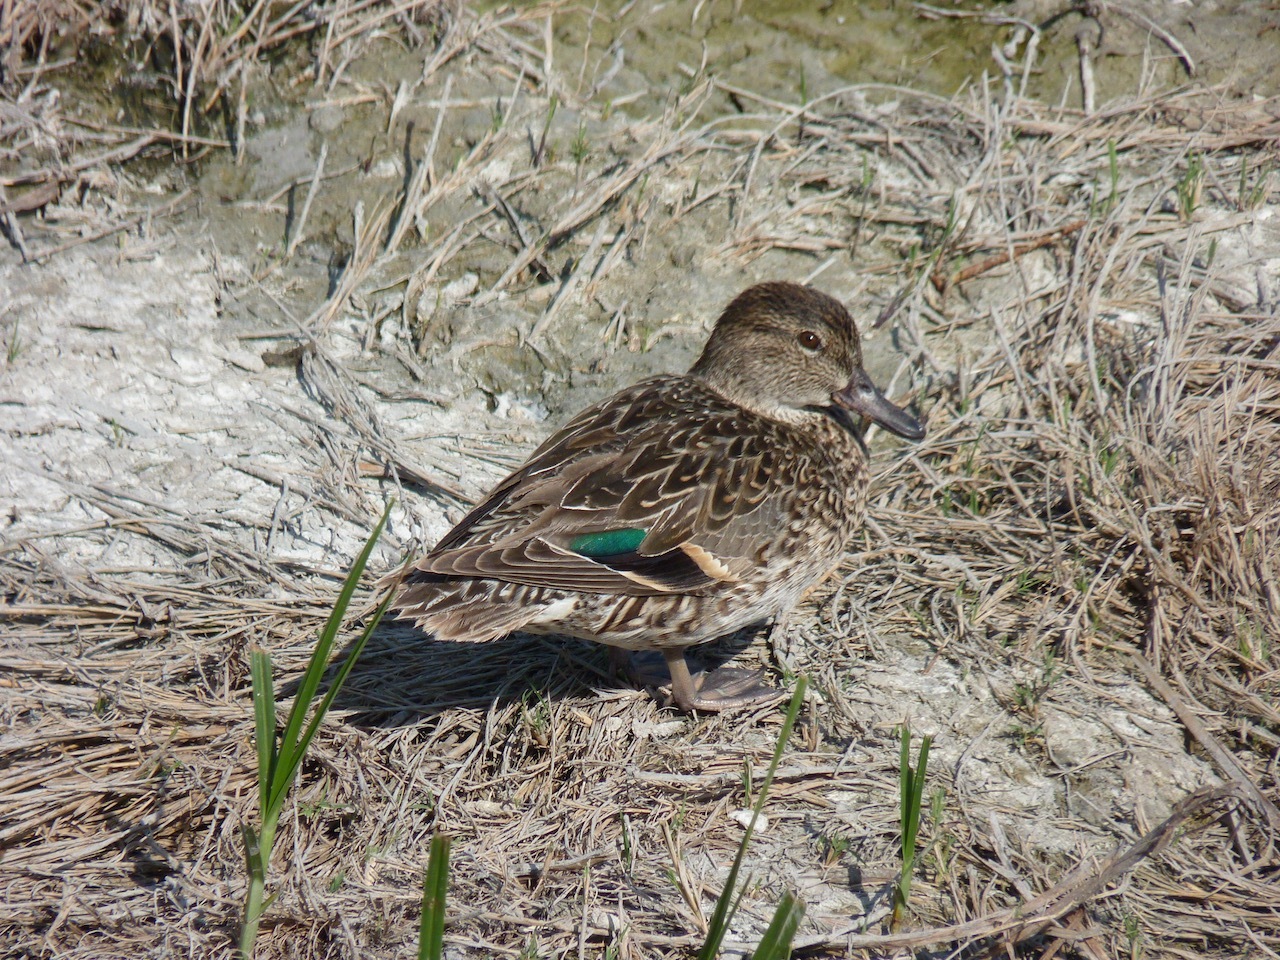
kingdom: Animalia
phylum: Chordata
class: Aves
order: Anseriformes
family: Anatidae
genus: Anas
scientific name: Anas crecca
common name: Eurasian teal
